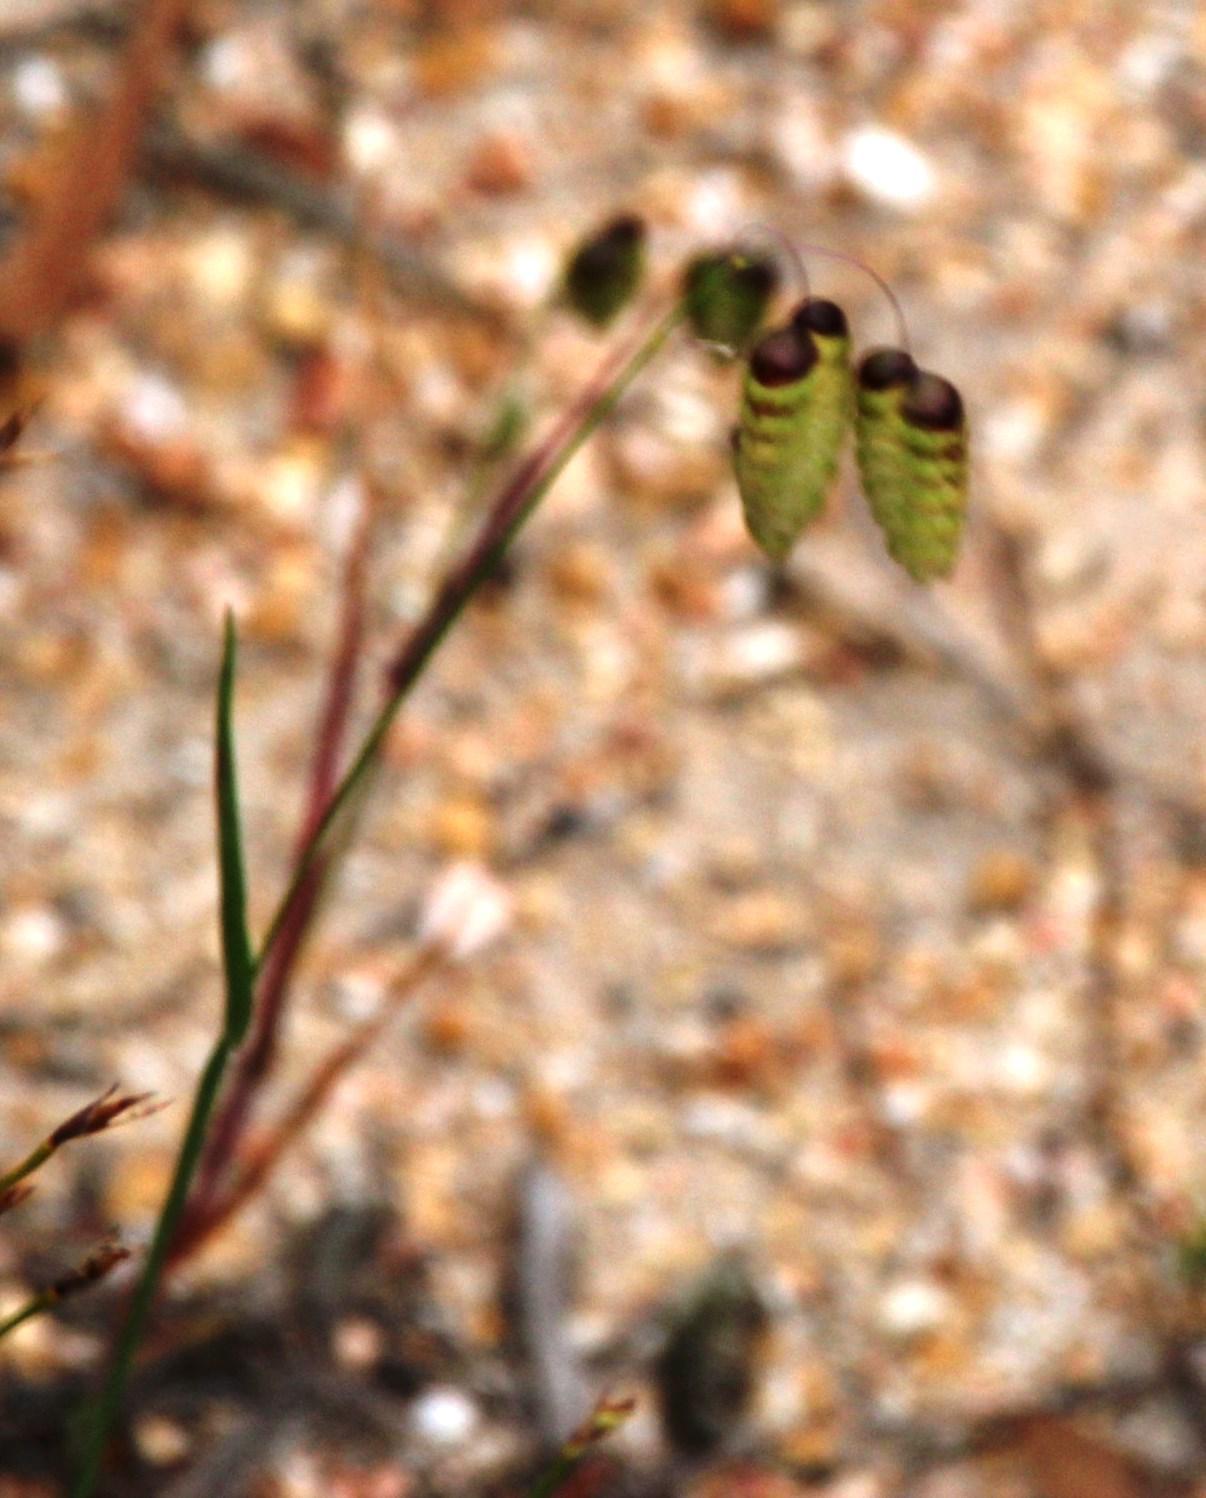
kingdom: Plantae
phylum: Tracheophyta
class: Liliopsida
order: Poales
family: Poaceae
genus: Briza
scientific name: Briza maxima
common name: Big quakinggrass
